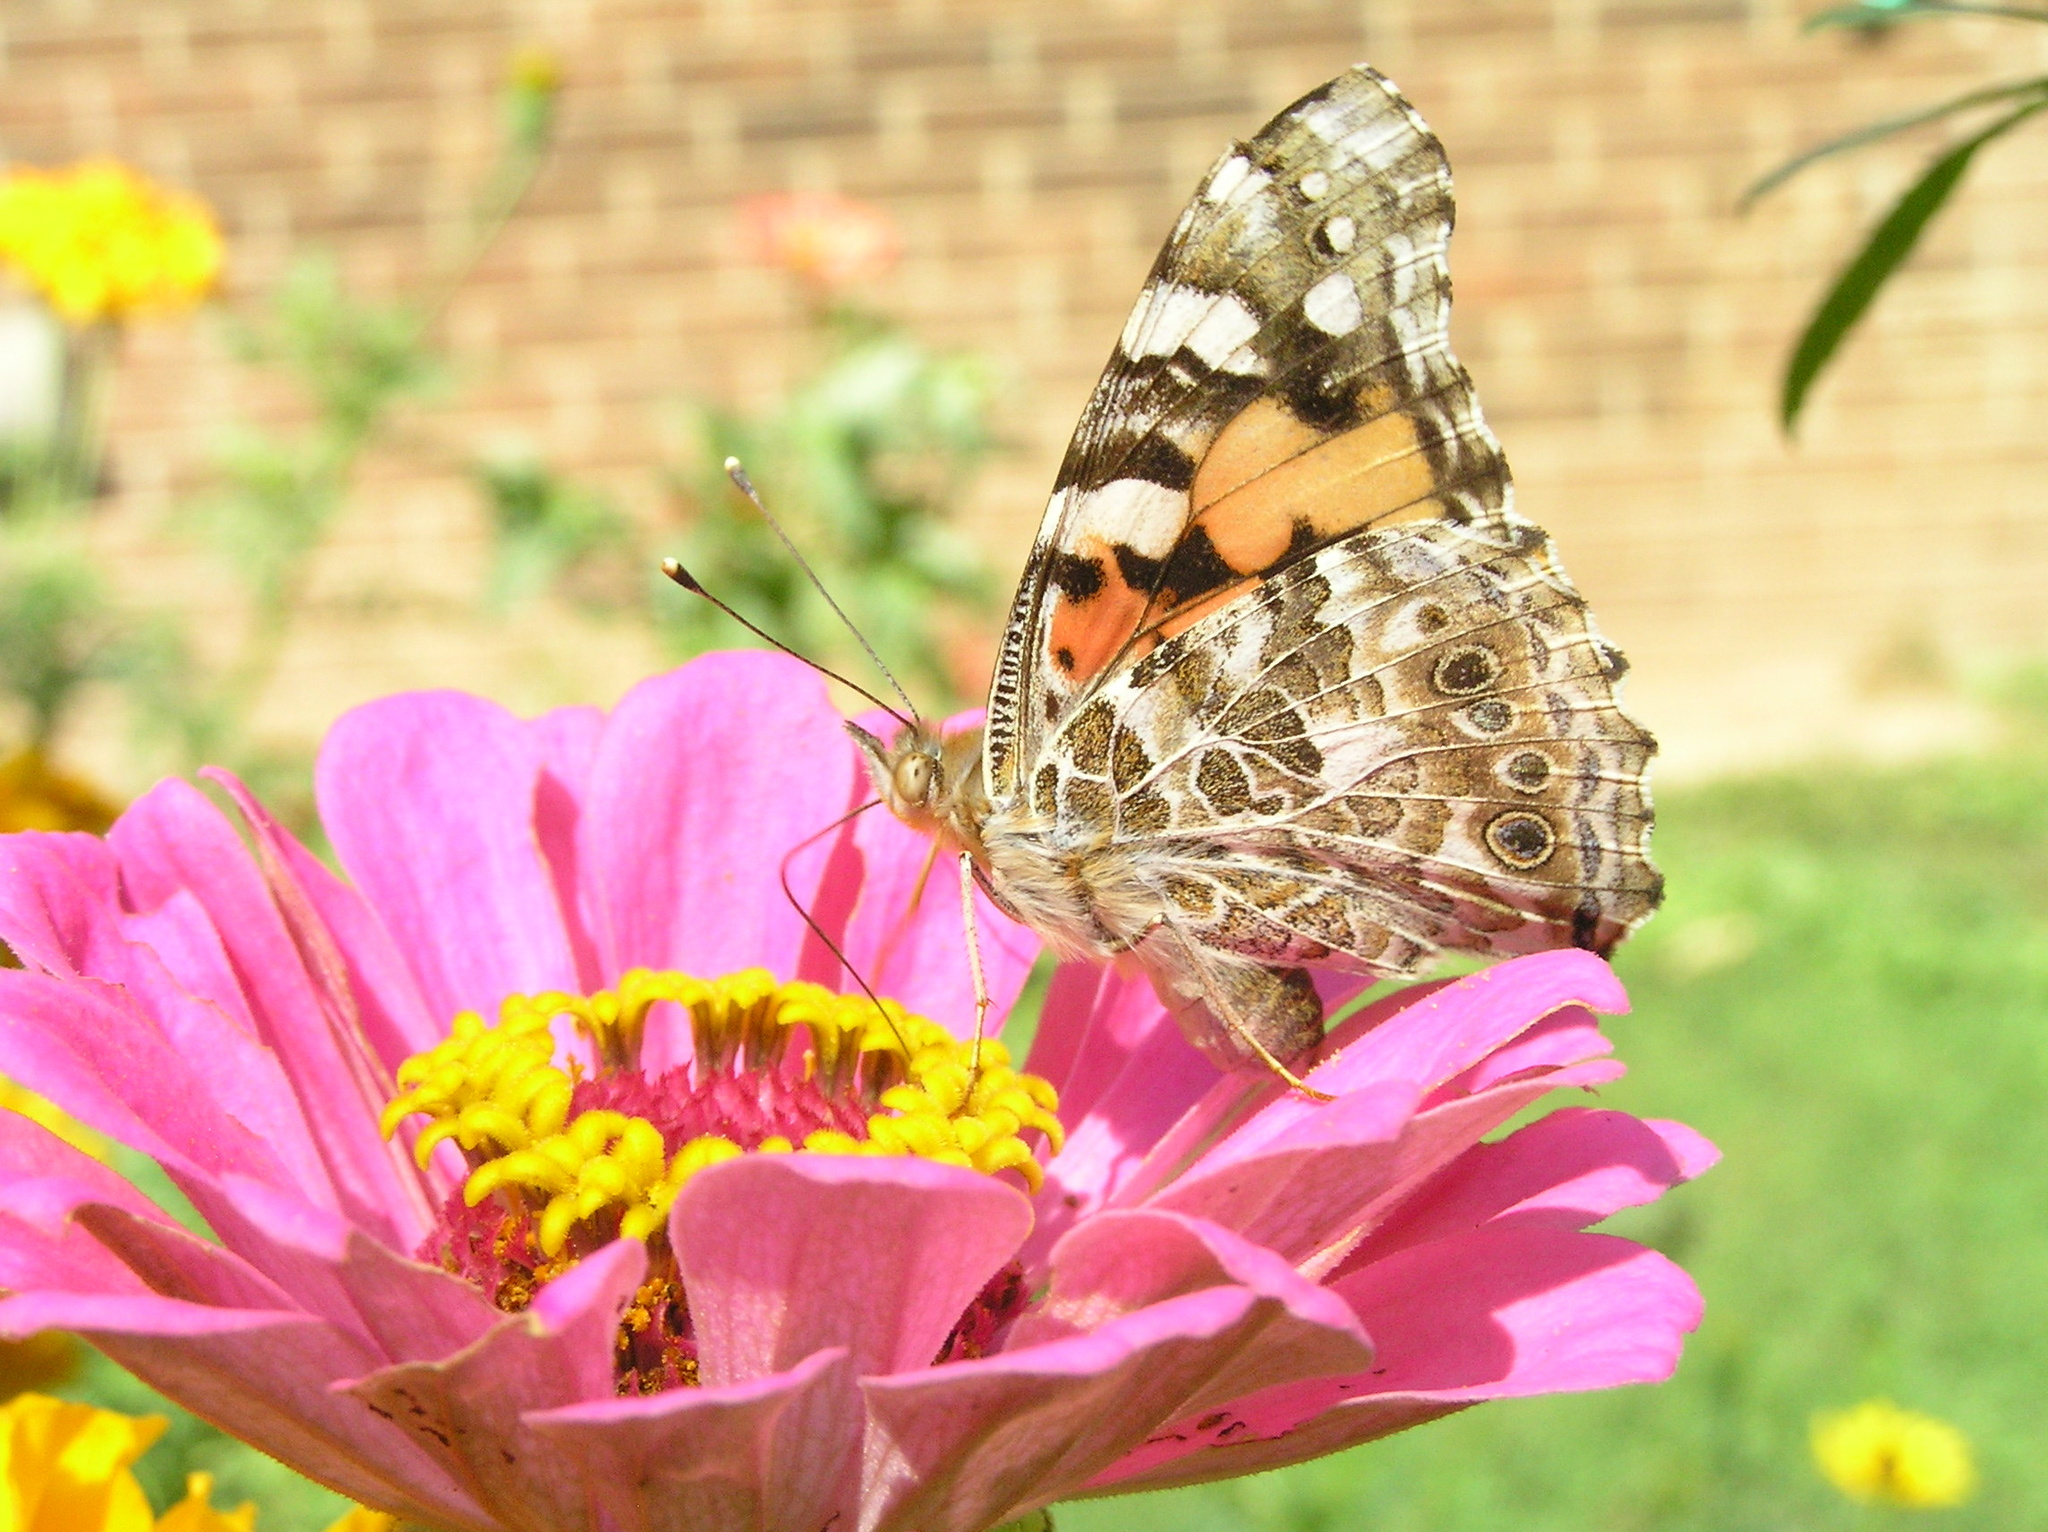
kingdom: Animalia
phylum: Arthropoda
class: Insecta
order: Lepidoptera
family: Nymphalidae
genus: Vanessa
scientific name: Vanessa cardui
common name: Painted lady
